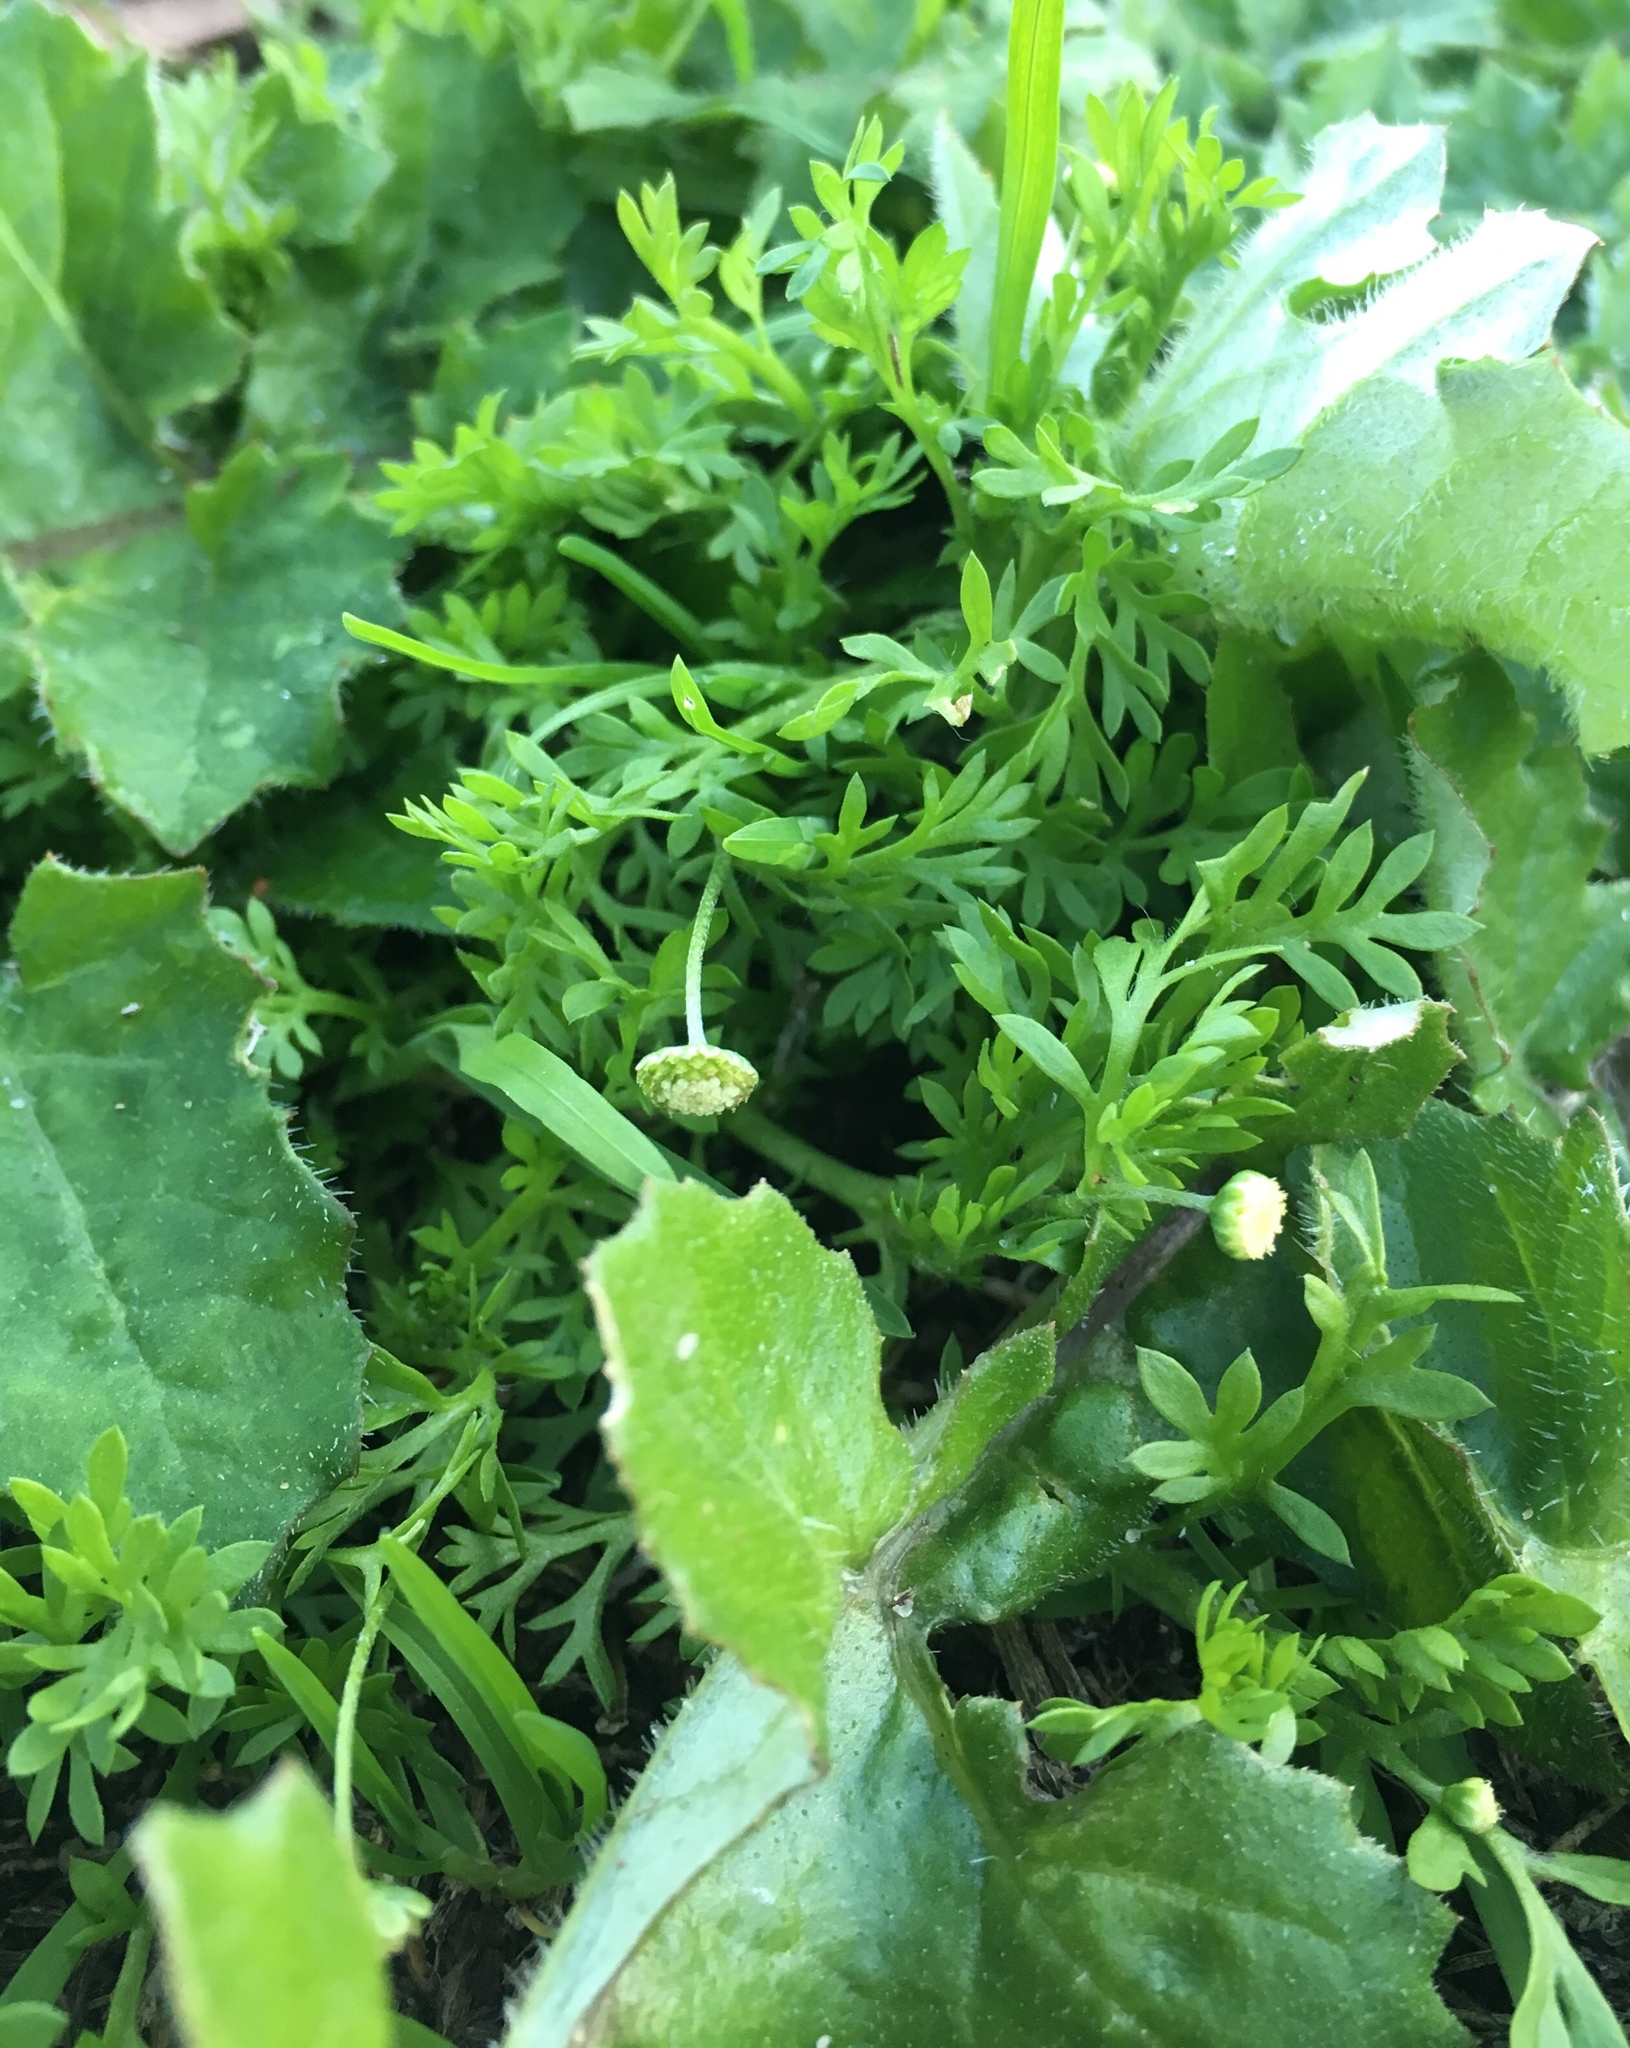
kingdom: Plantae
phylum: Tracheophyta
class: Magnoliopsida
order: Asterales
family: Asteraceae
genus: Cotula
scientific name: Cotula australis
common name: Australian waterbuttons
